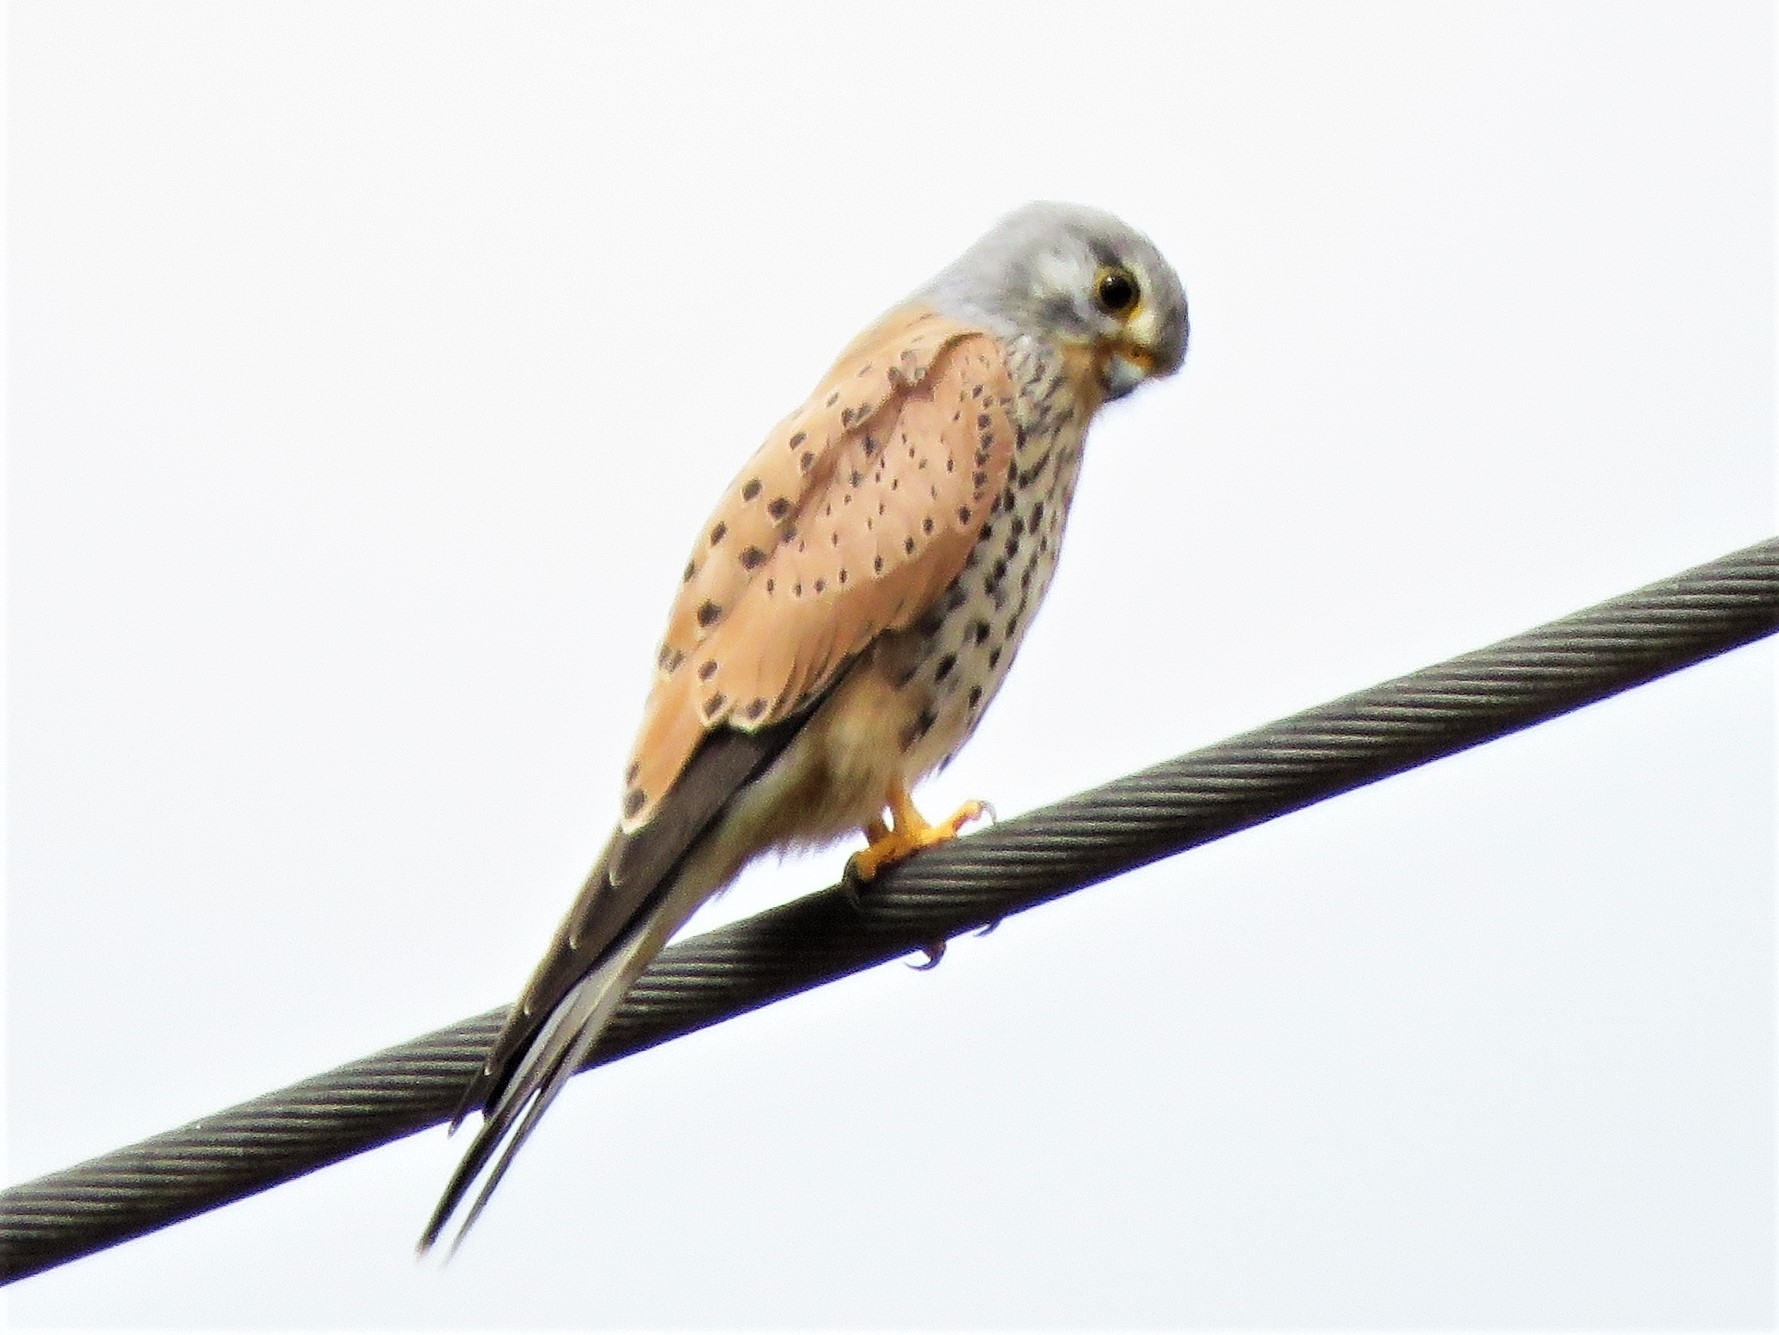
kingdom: Animalia
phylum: Chordata
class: Aves
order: Falconiformes
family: Falconidae
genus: Falco
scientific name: Falco tinnunculus
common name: Common kestrel
